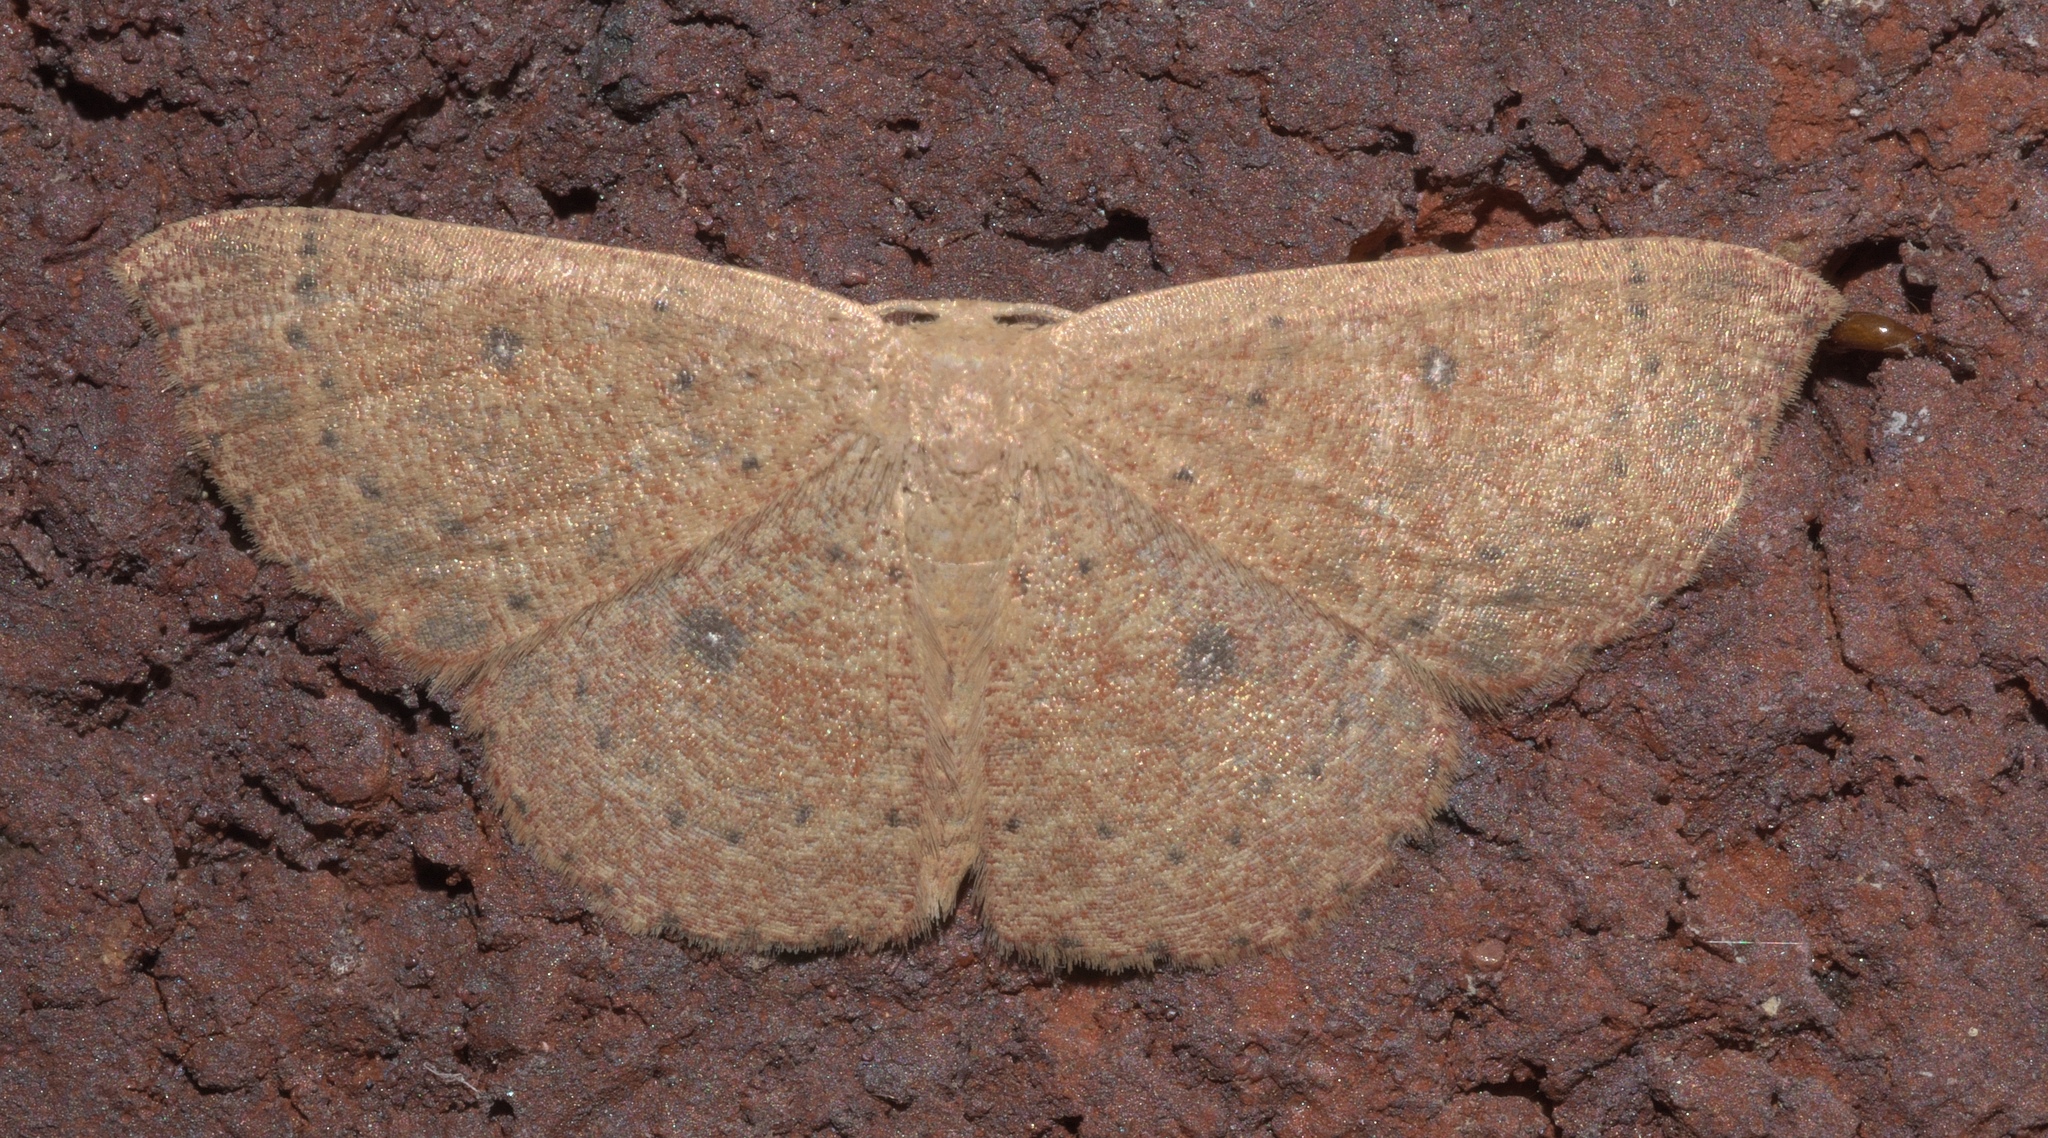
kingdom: Animalia
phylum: Arthropoda
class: Insecta
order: Lepidoptera
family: Geometridae
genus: Cyclophora
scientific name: Cyclophora packardi
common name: Packard's wave
